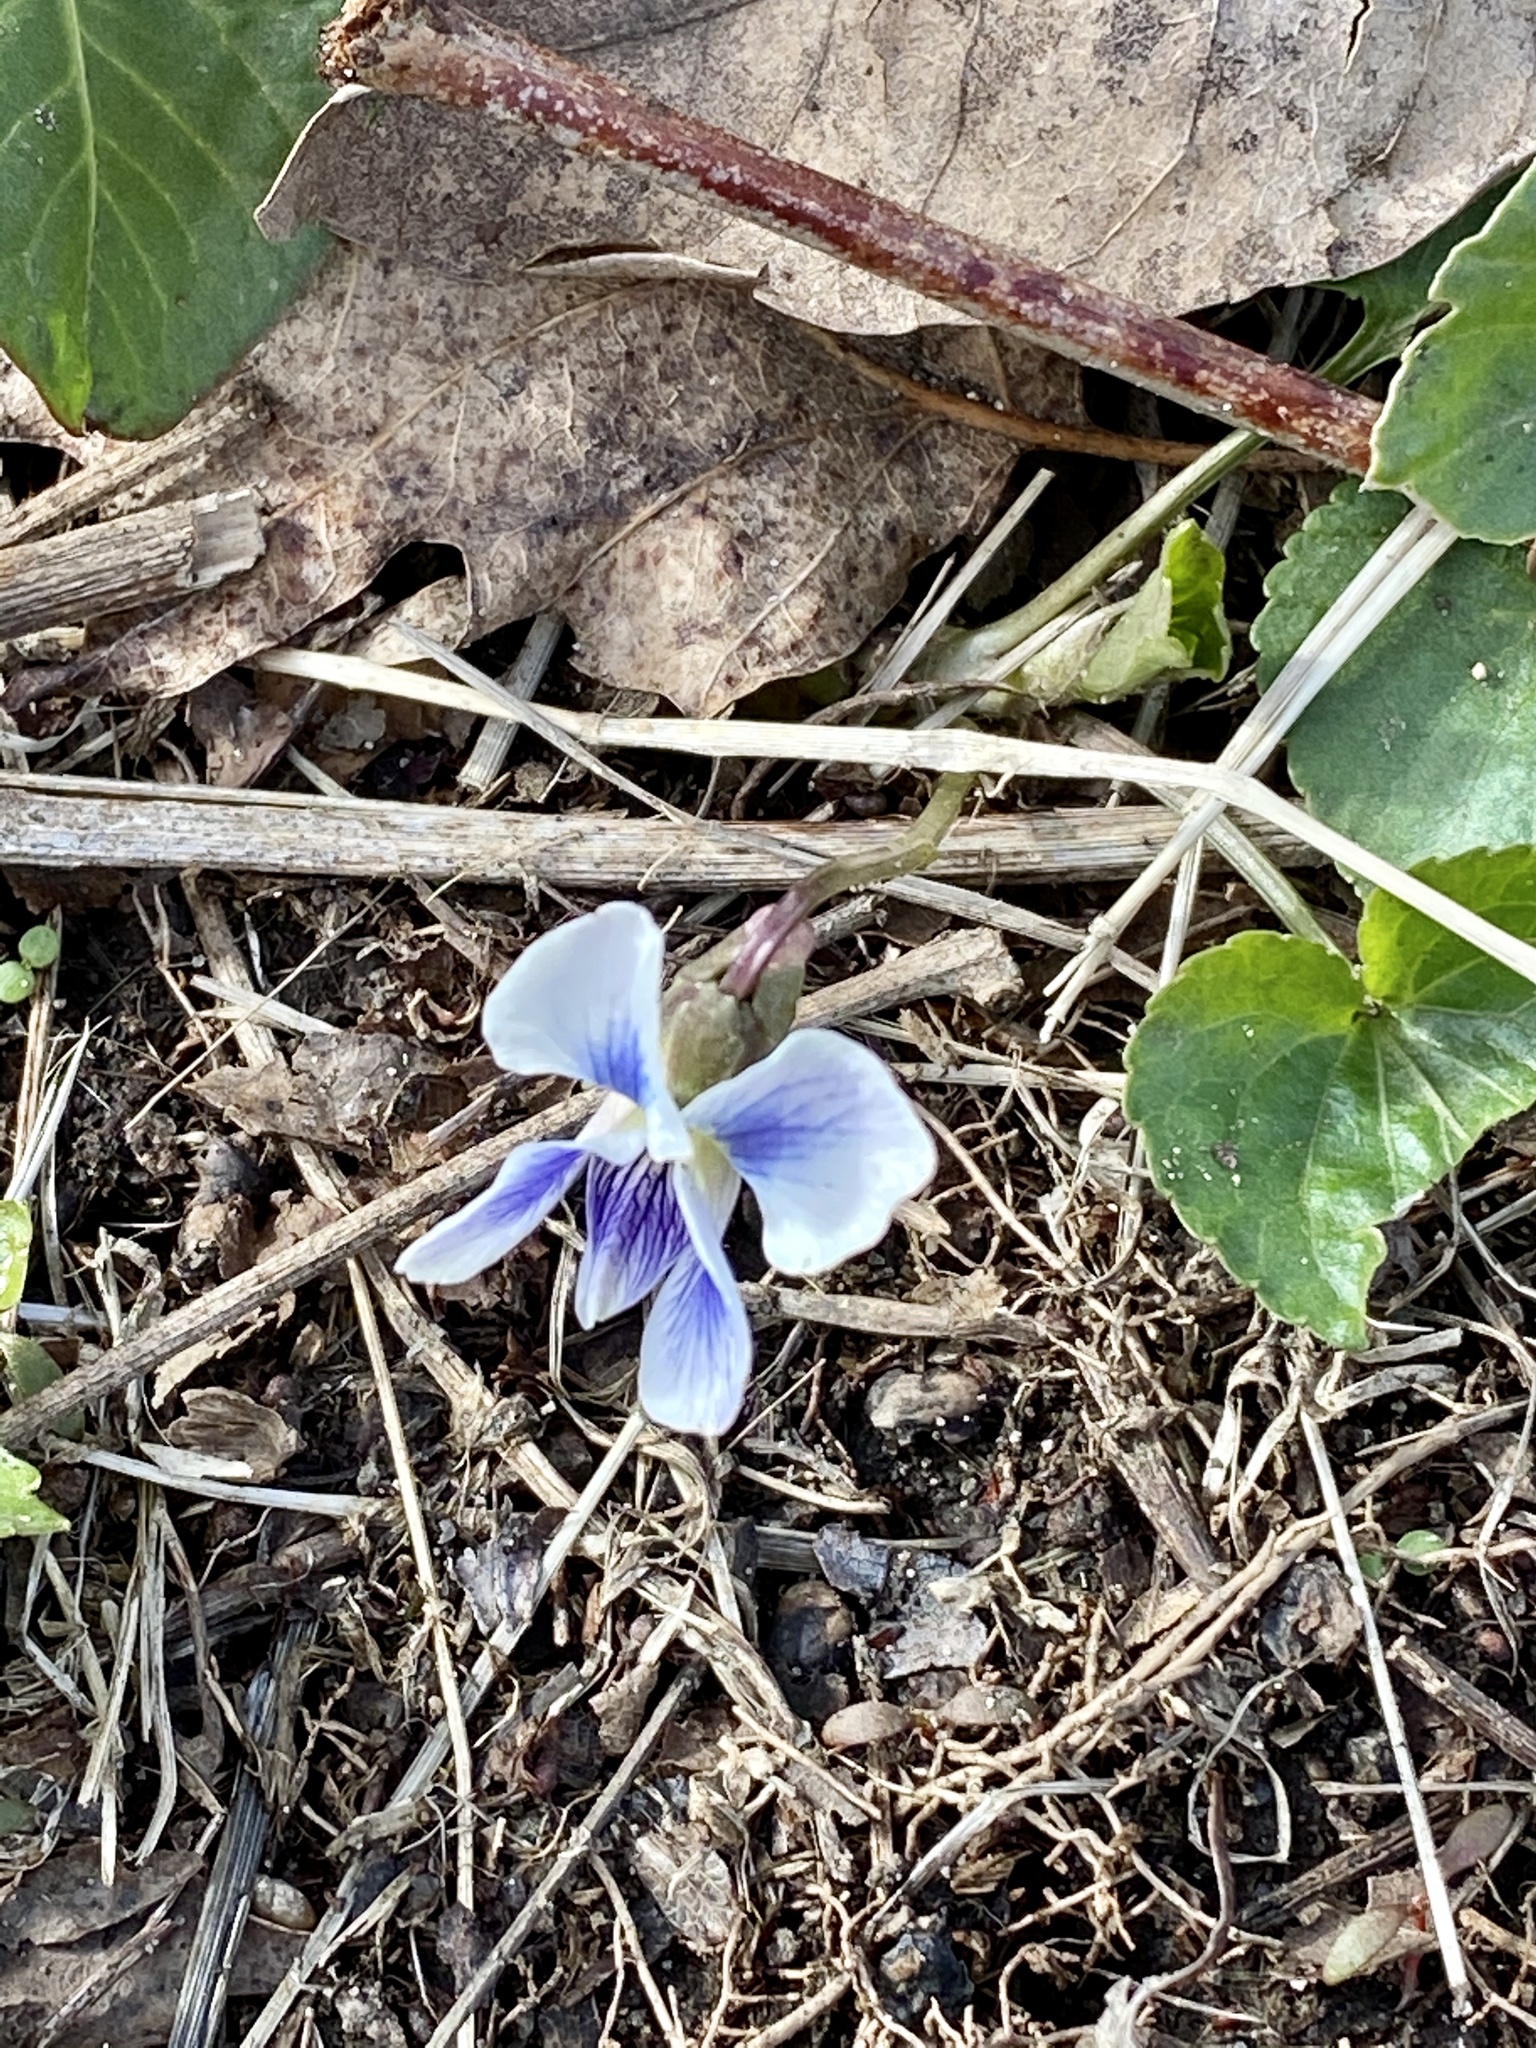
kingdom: Plantae
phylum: Tracheophyta
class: Magnoliopsida
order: Malpighiales
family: Violaceae
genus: Viola
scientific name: Viola sororia
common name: Dooryard violet
